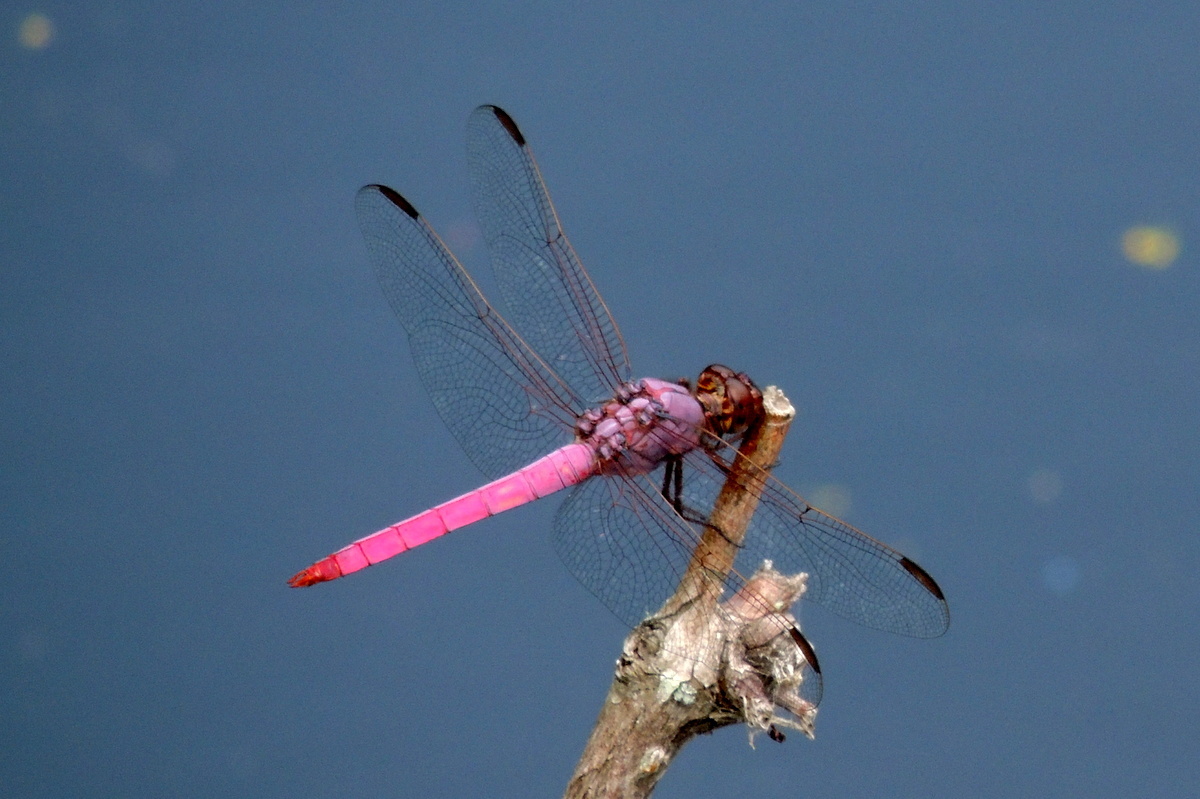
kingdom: Animalia
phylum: Arthropoda
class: Insecta
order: Odonata
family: Libellulidae
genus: Orthemis
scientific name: Orthemis ferruginea
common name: Roseate skimmer
